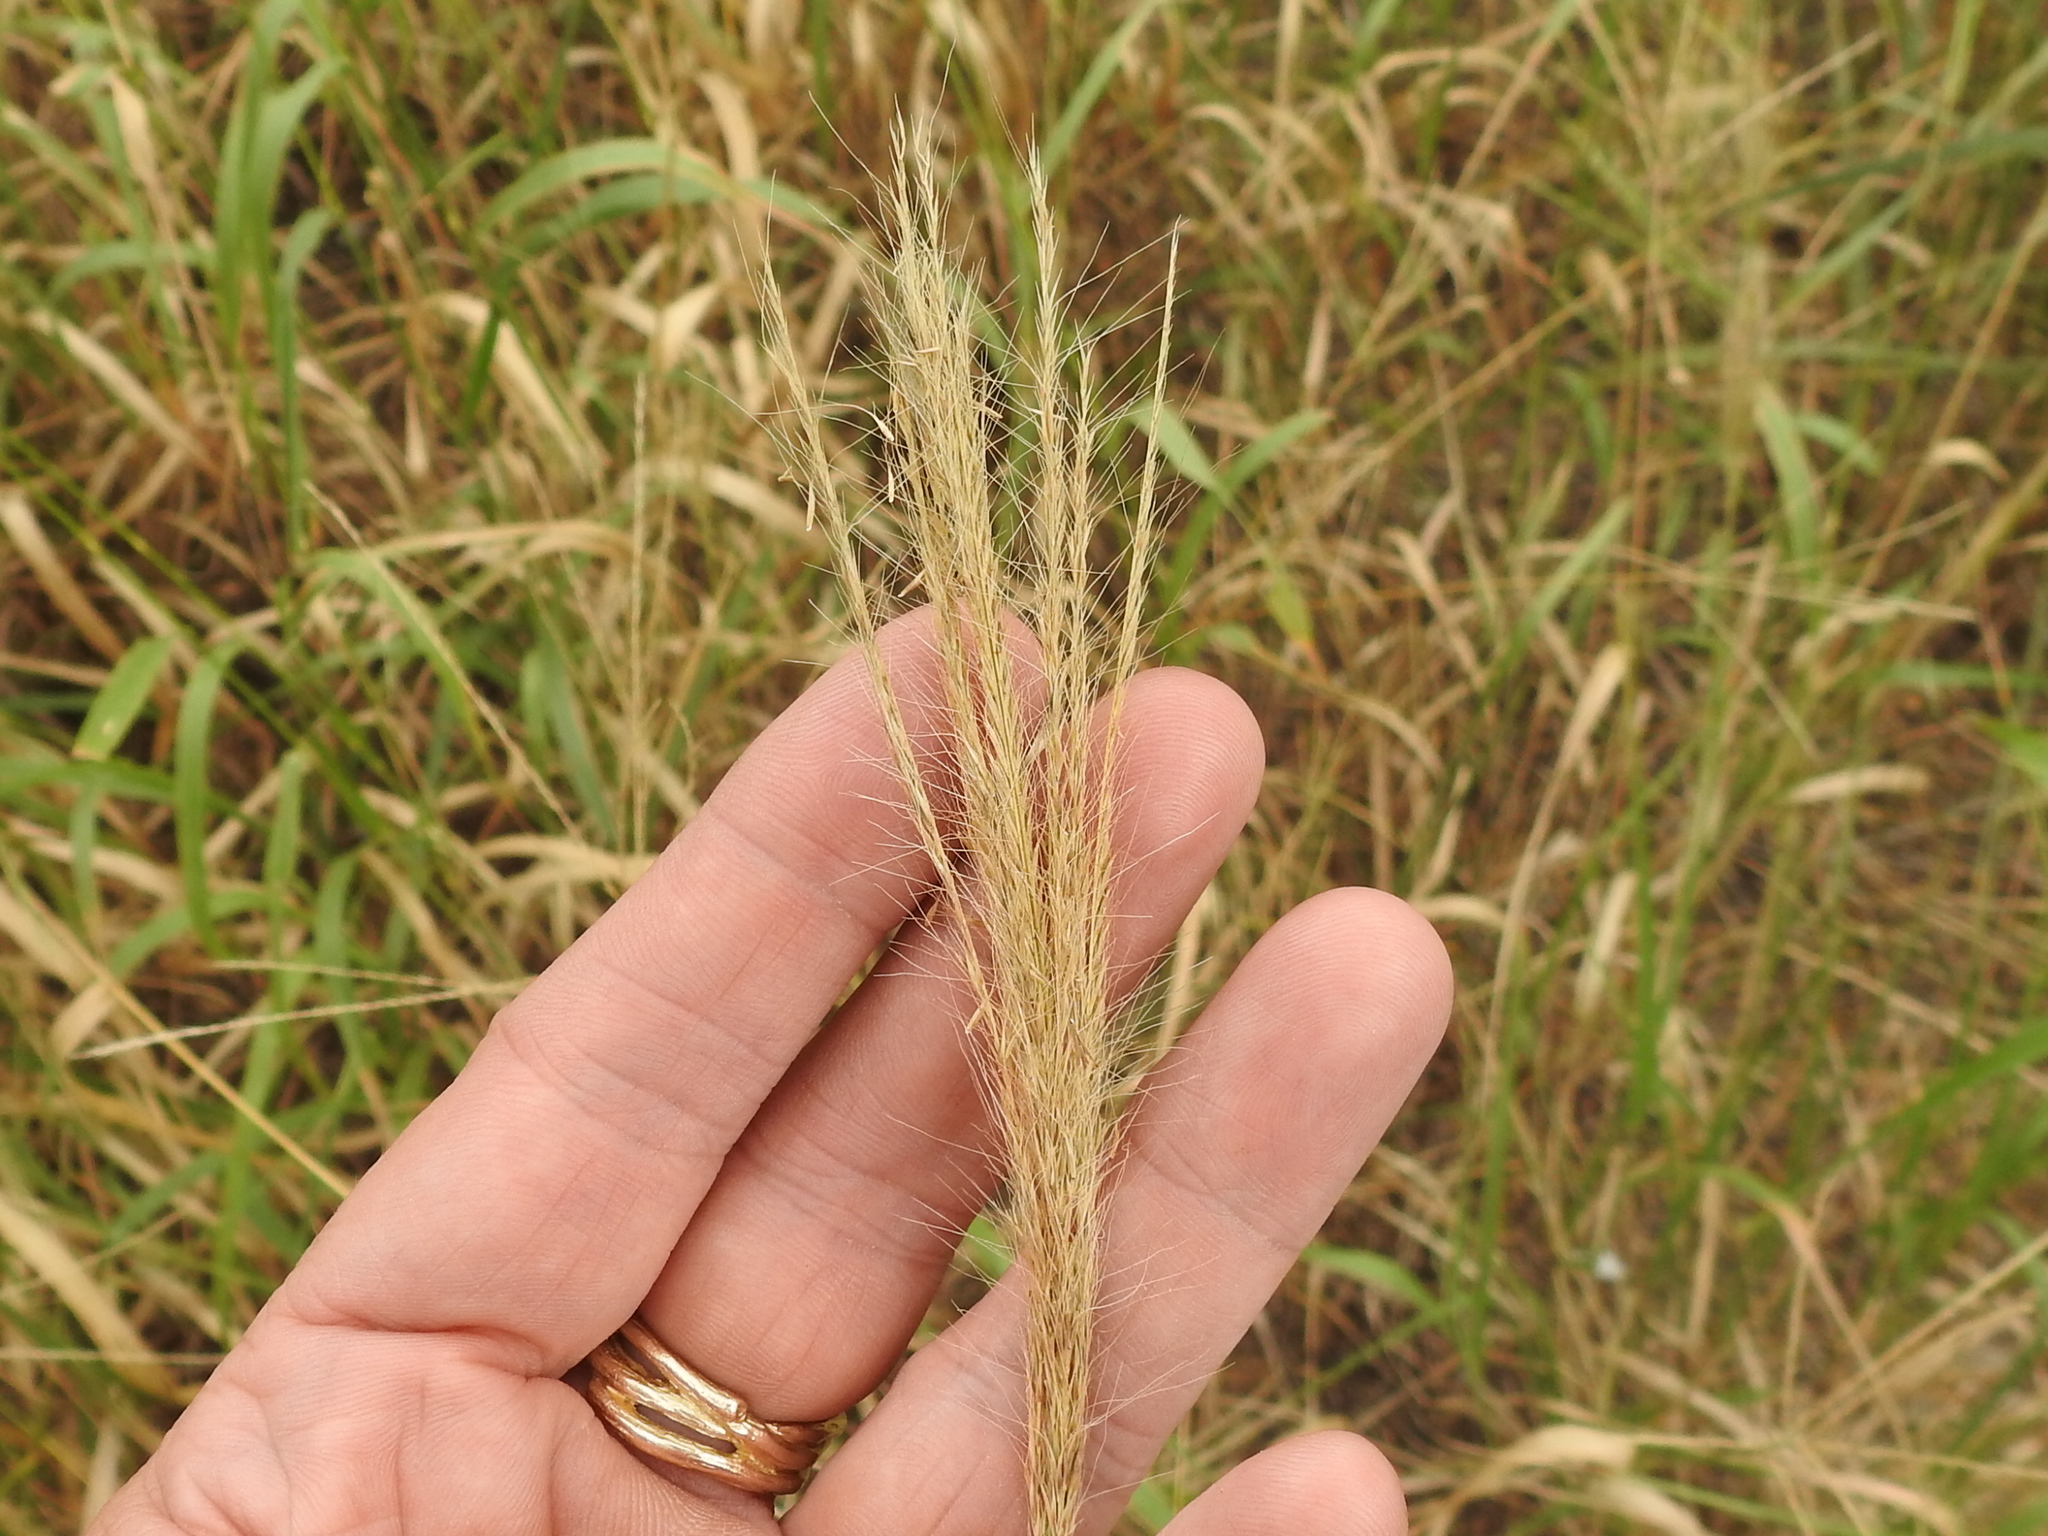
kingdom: Plantae
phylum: Tracheophyta
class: Liliopsida
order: Poales
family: Poaceae
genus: Leptochloa
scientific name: Leptochloa pluriflora
